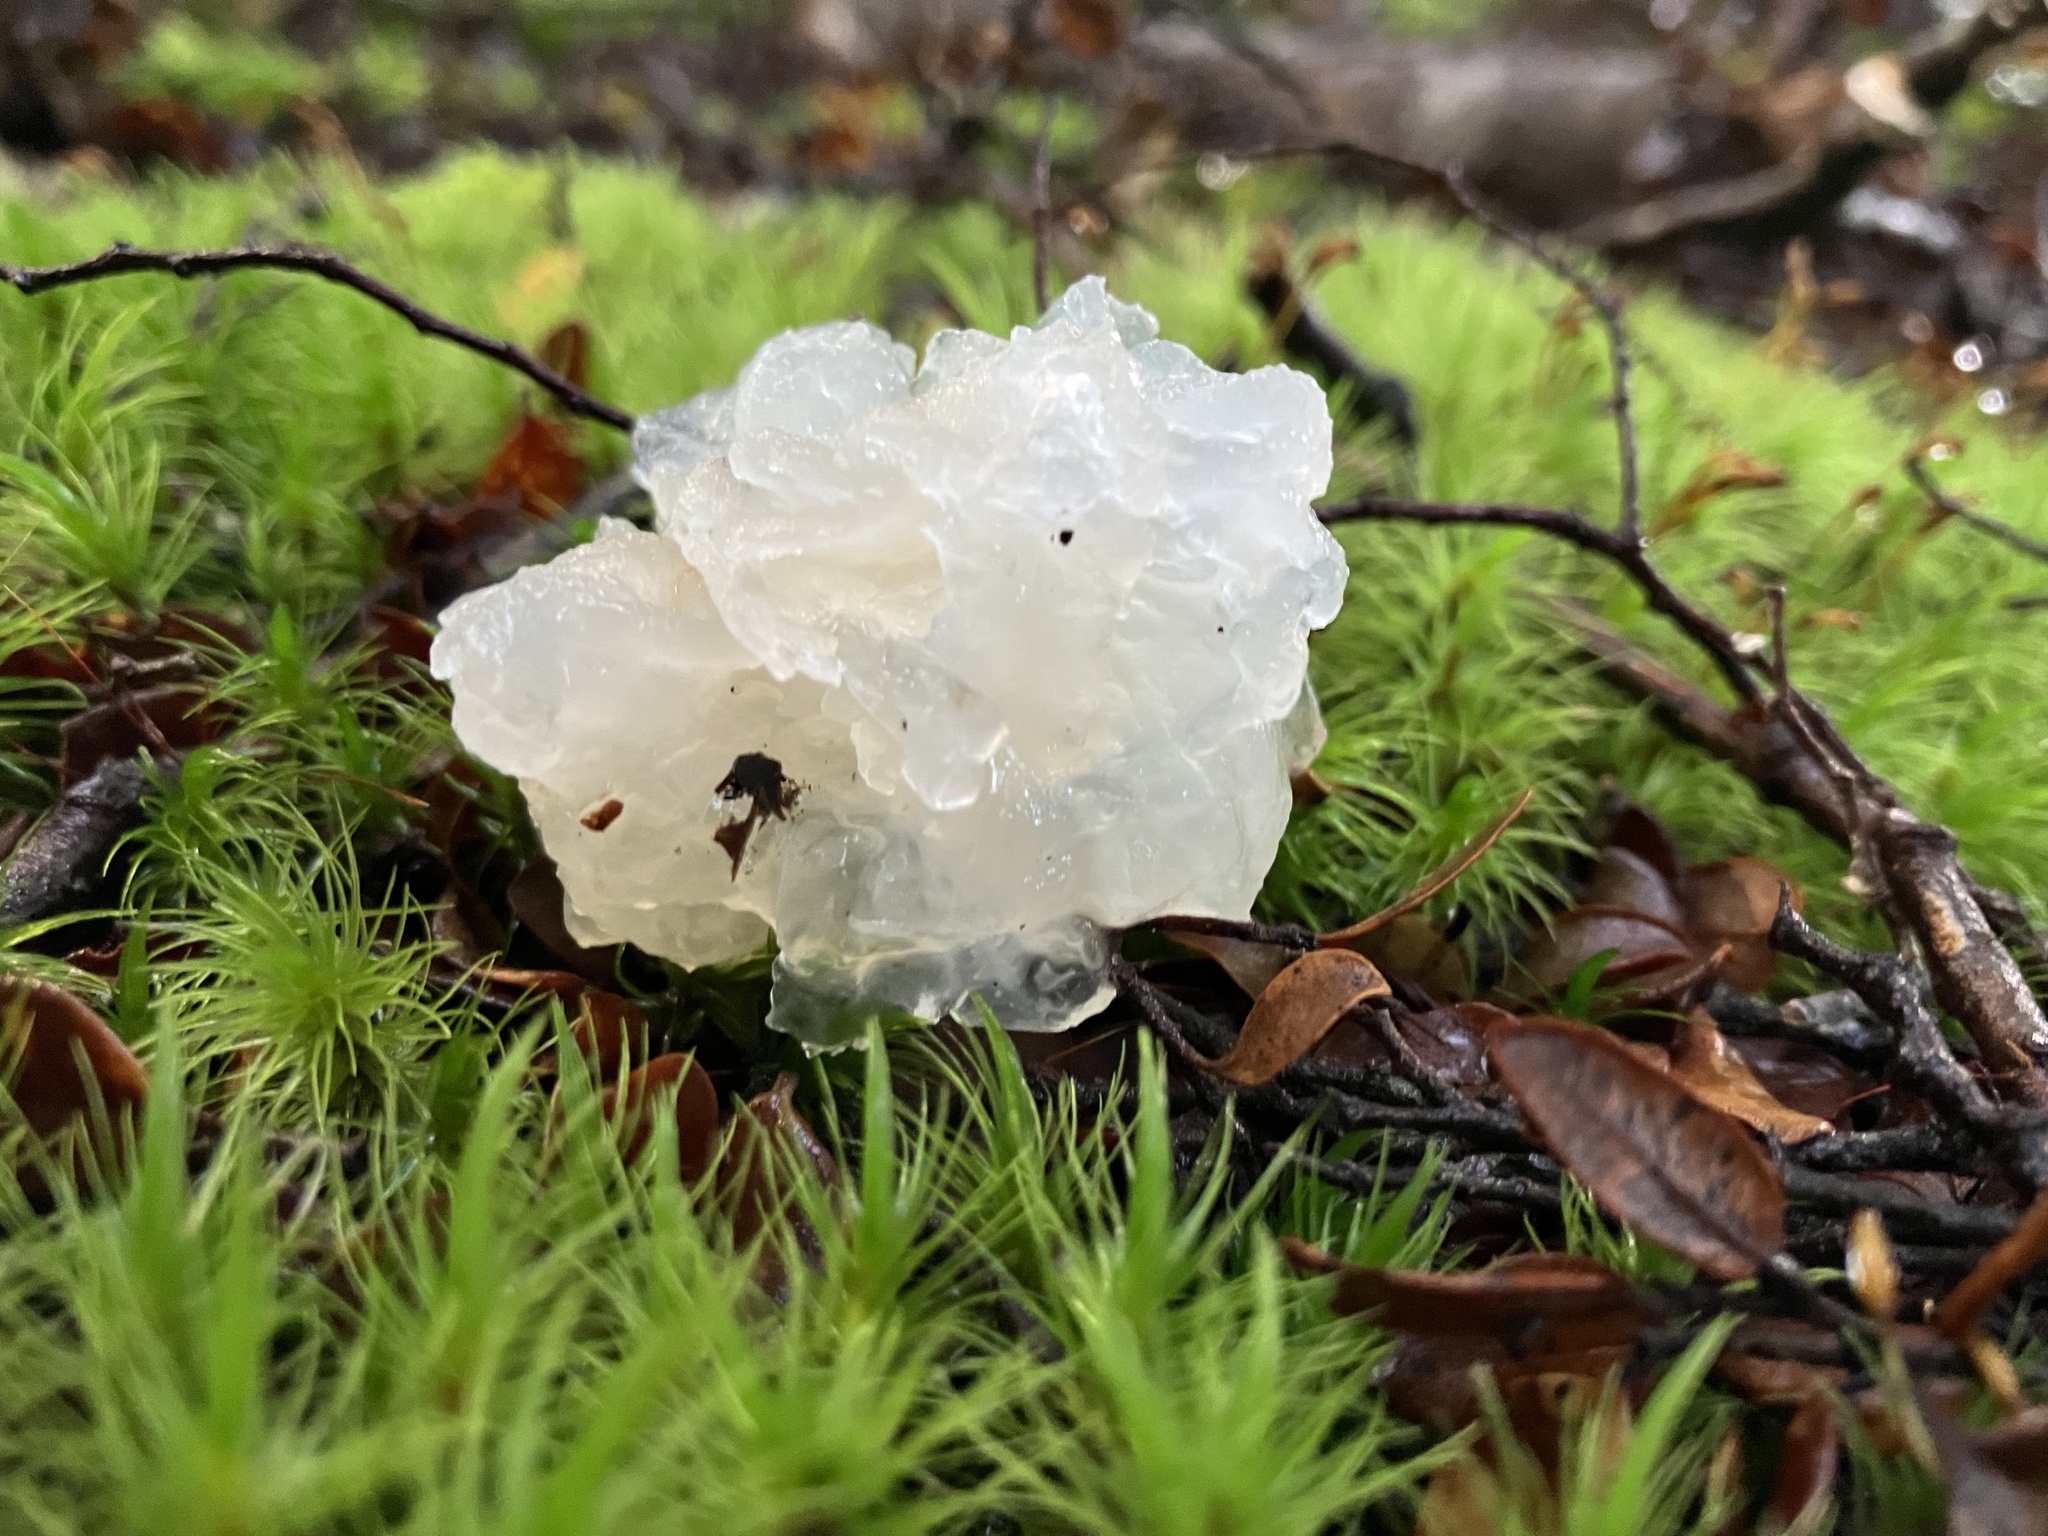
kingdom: Fungi
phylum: Basidiomycota
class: Tremellomycetes
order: Tremellales
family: Tremellaceae
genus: Tremella
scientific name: Tremella fuciformis
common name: Snow fungus
